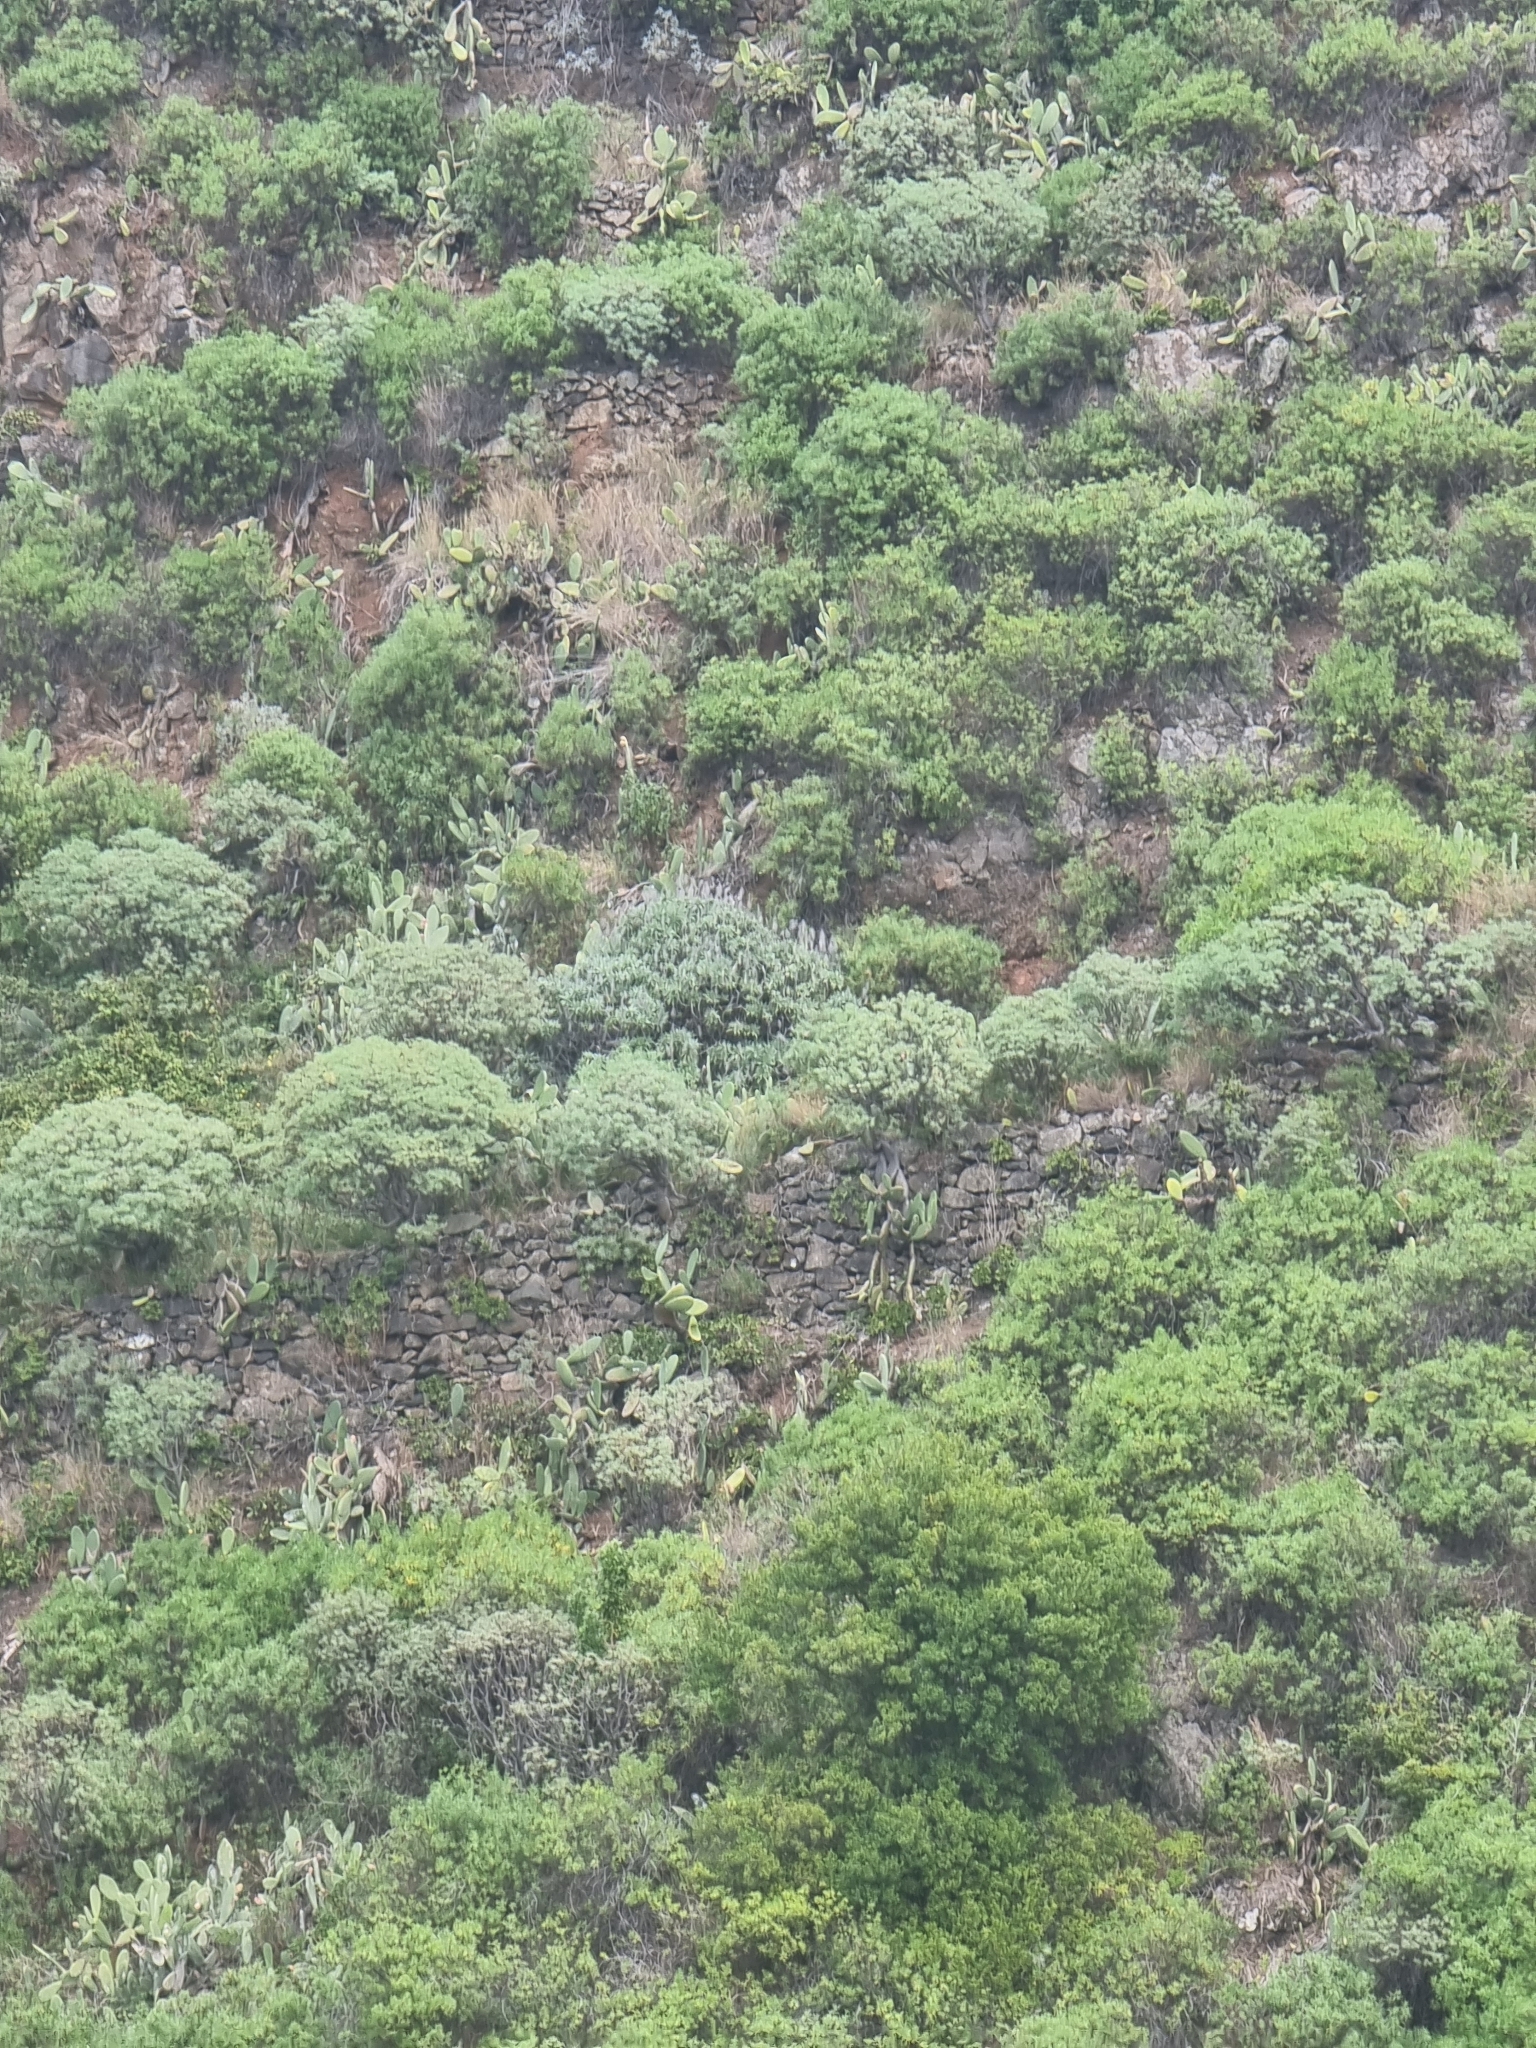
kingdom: Plantae
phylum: Tracheophyta
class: Magnoliopsida
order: Boraginales
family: Boraginaceae
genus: Echium
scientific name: Echium nervosum
